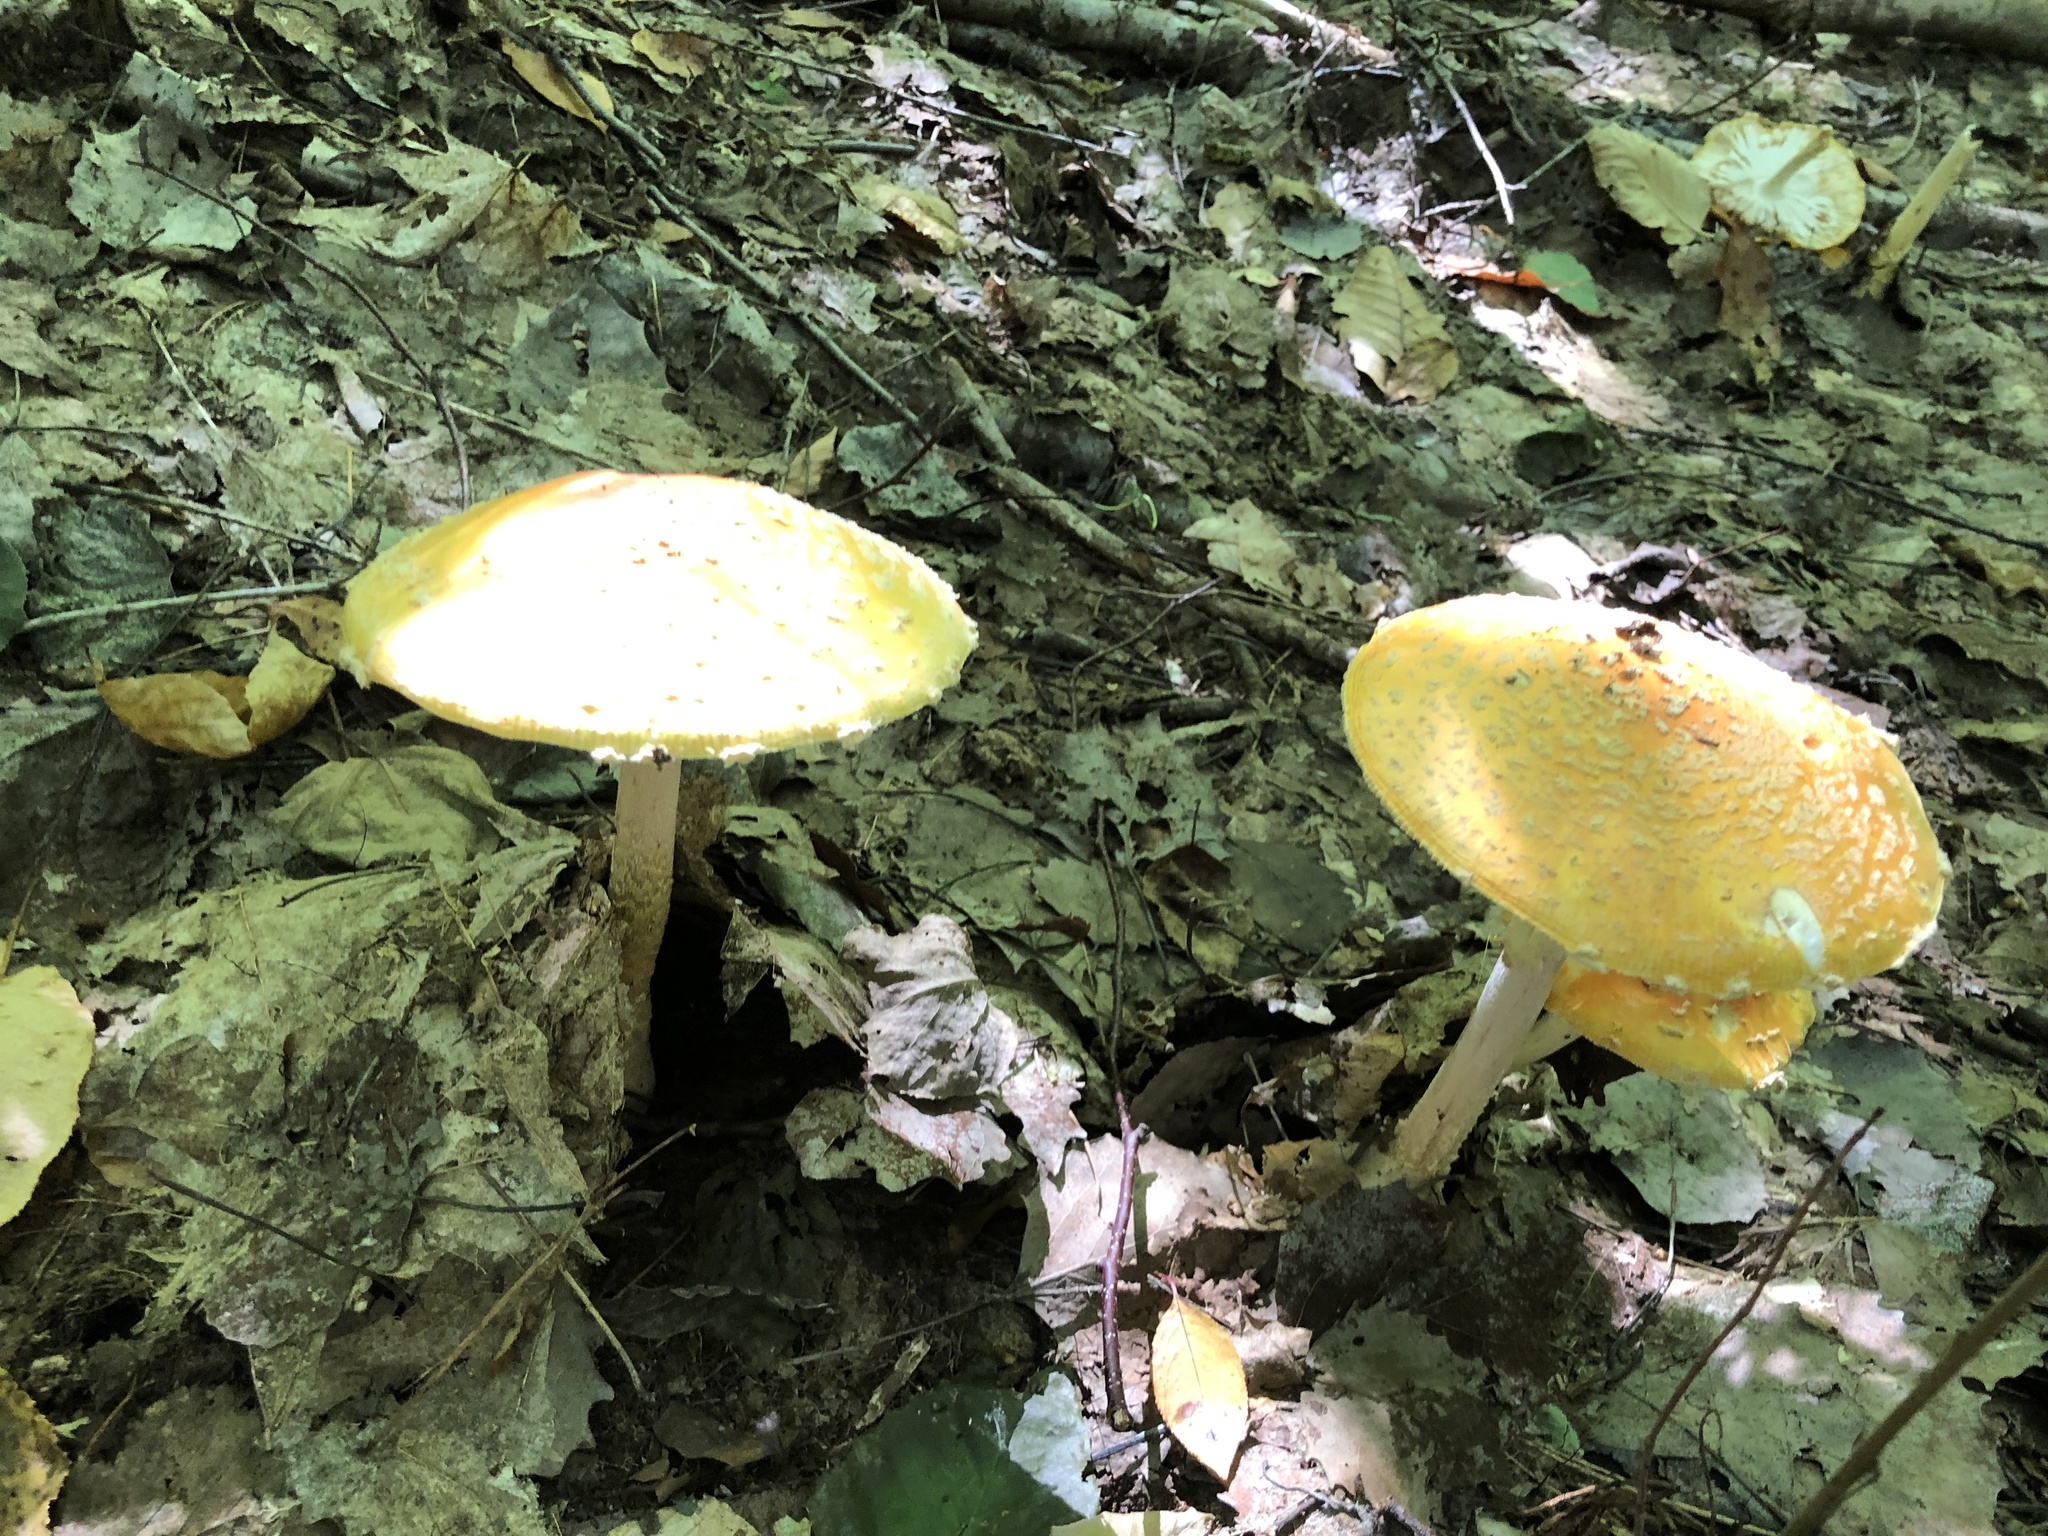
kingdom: Fungi
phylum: Basidiomycota
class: Agaricomycetes
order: Agaricales
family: Amanitaceae
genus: Amanita
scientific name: Amanita muscaria
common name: Fly agaric
